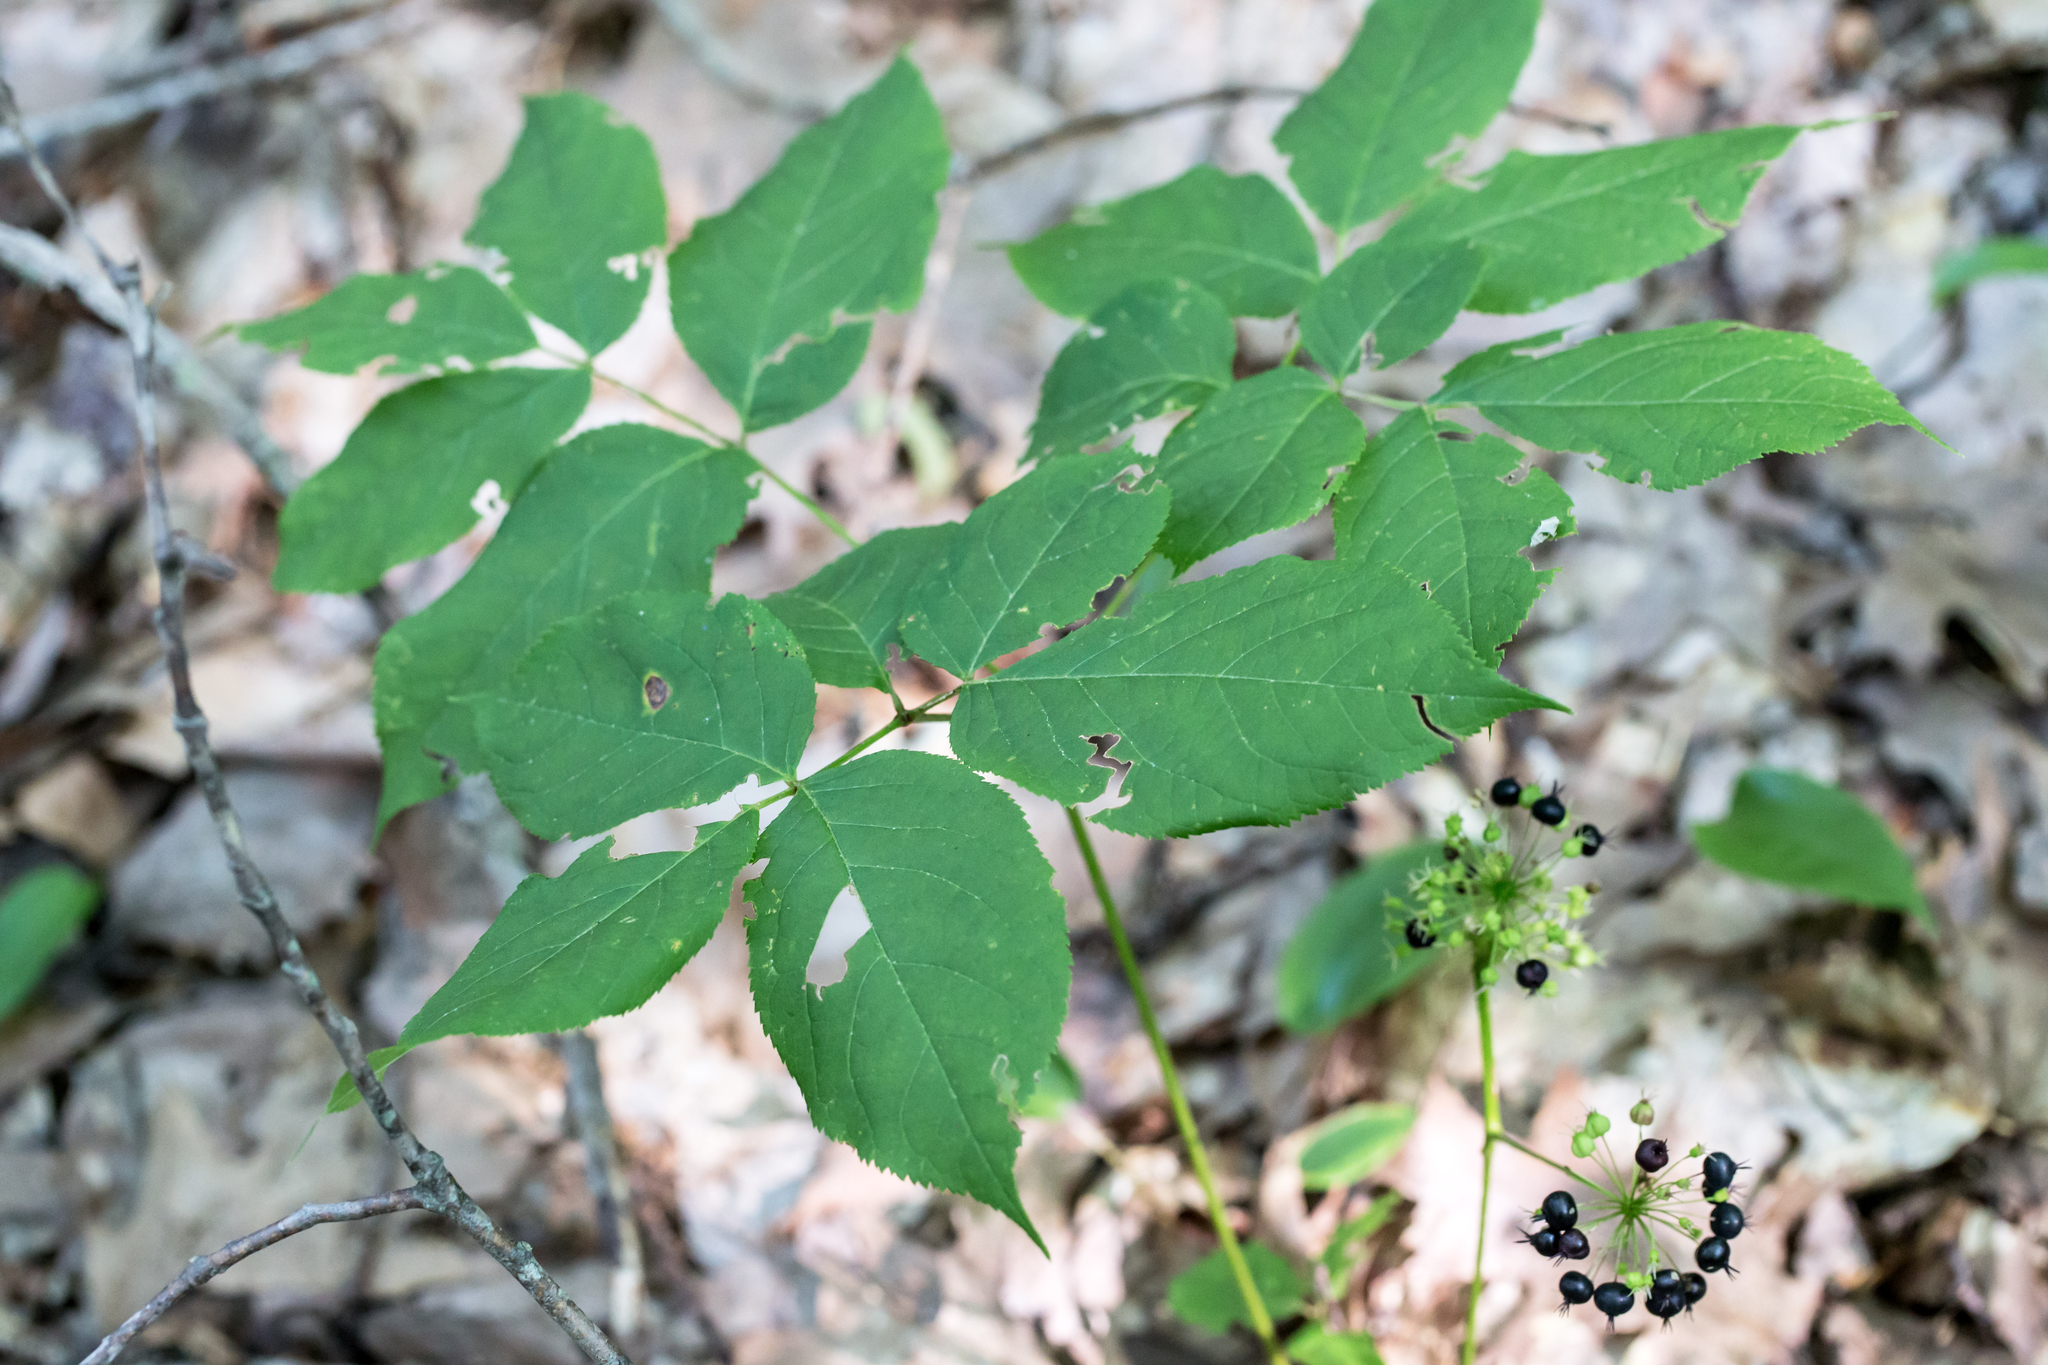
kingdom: Plantae
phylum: Tracheophyta
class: Magnoliopsida
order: Apiales
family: Araliaceae
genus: Aralia
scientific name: Aralia nudicaulis
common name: Wild sarsaparilla
